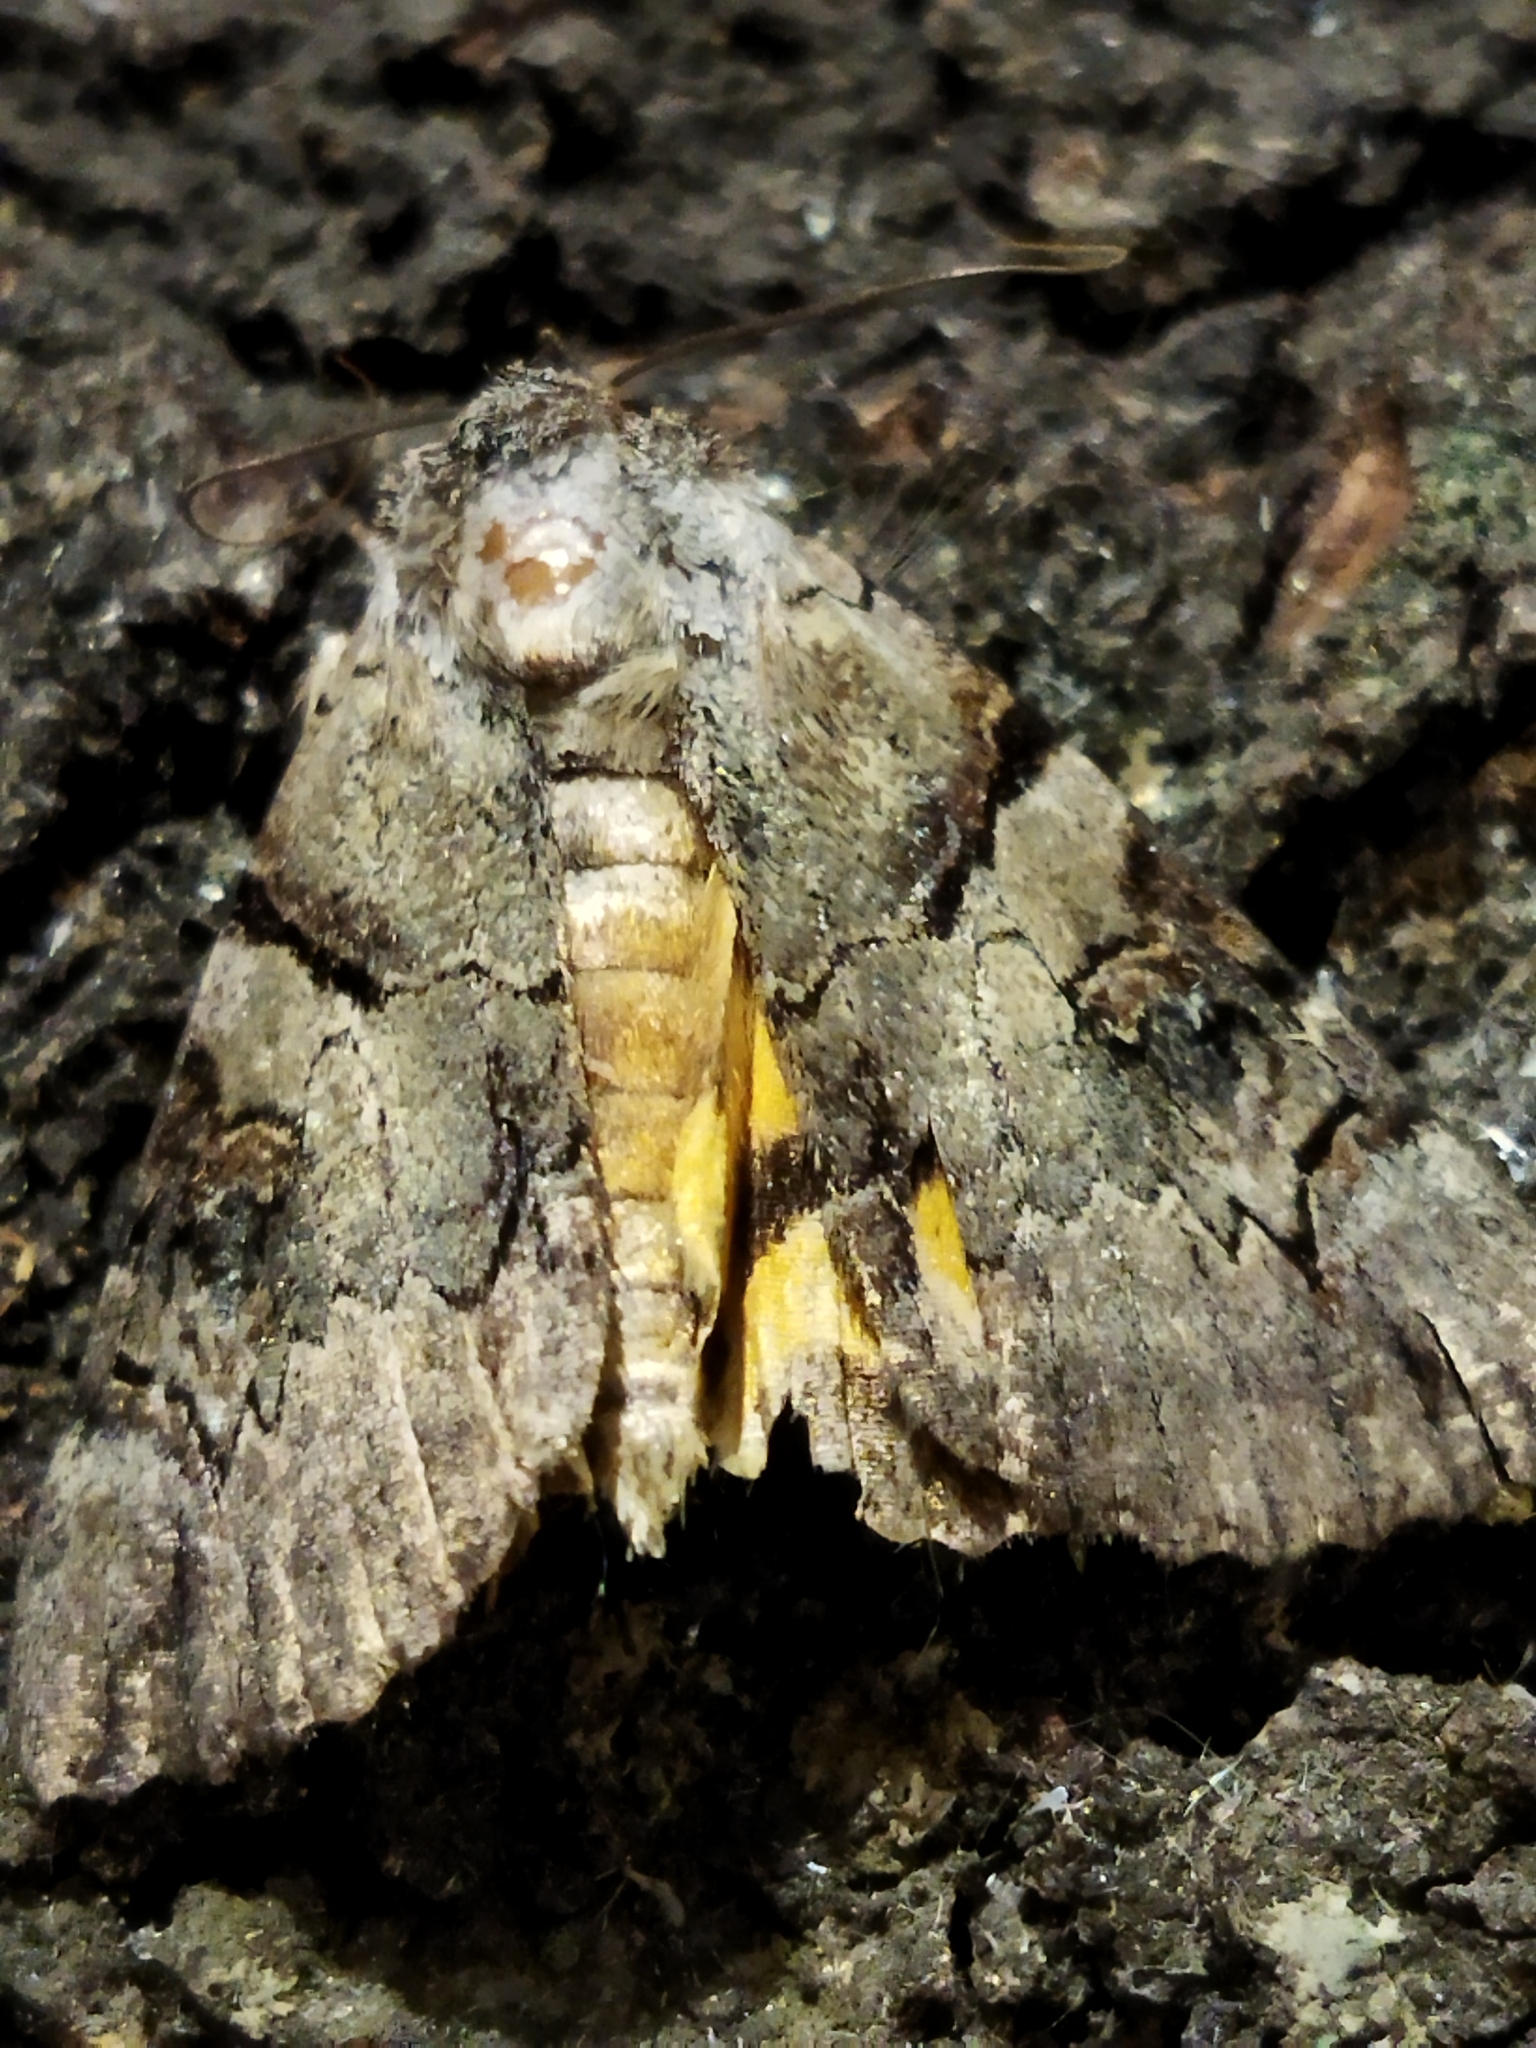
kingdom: Animalia
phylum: Arthropoda
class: Insecta
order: Lepidoptera
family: Erebidae
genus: Catocala
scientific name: Catocala hymenaea
